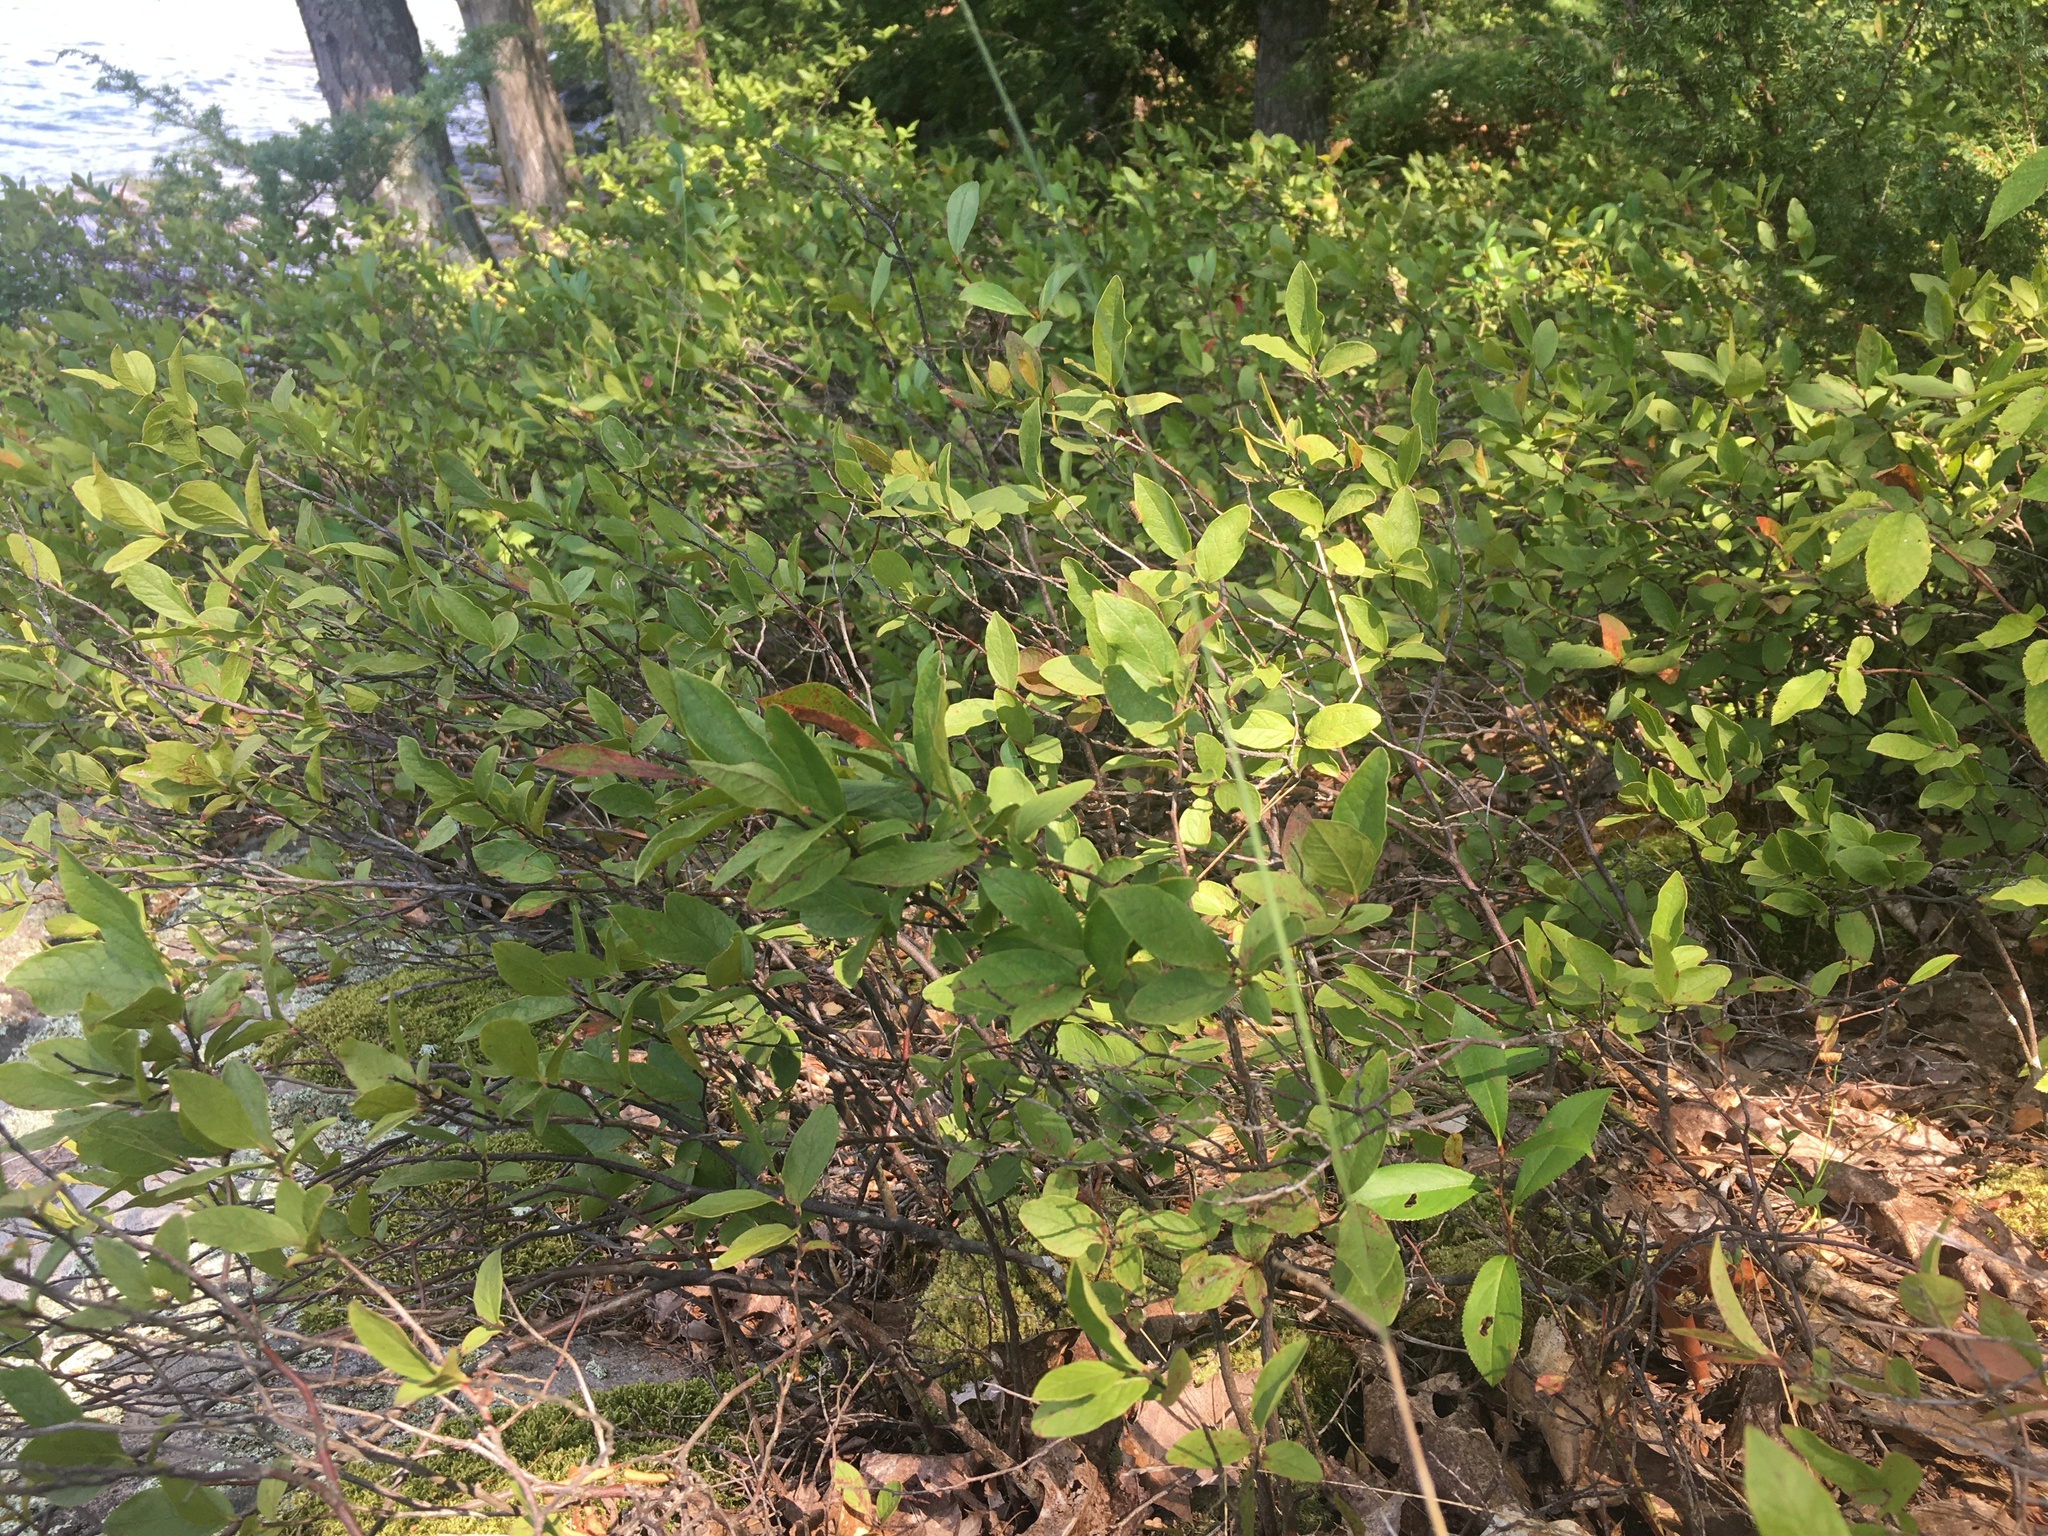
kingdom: Plantae
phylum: Tracheophyta
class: Magnoliopsida
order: Ericales
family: Ericaceae
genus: Gaylussacia
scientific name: Gaylussacia baccata
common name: Black huckleberry
